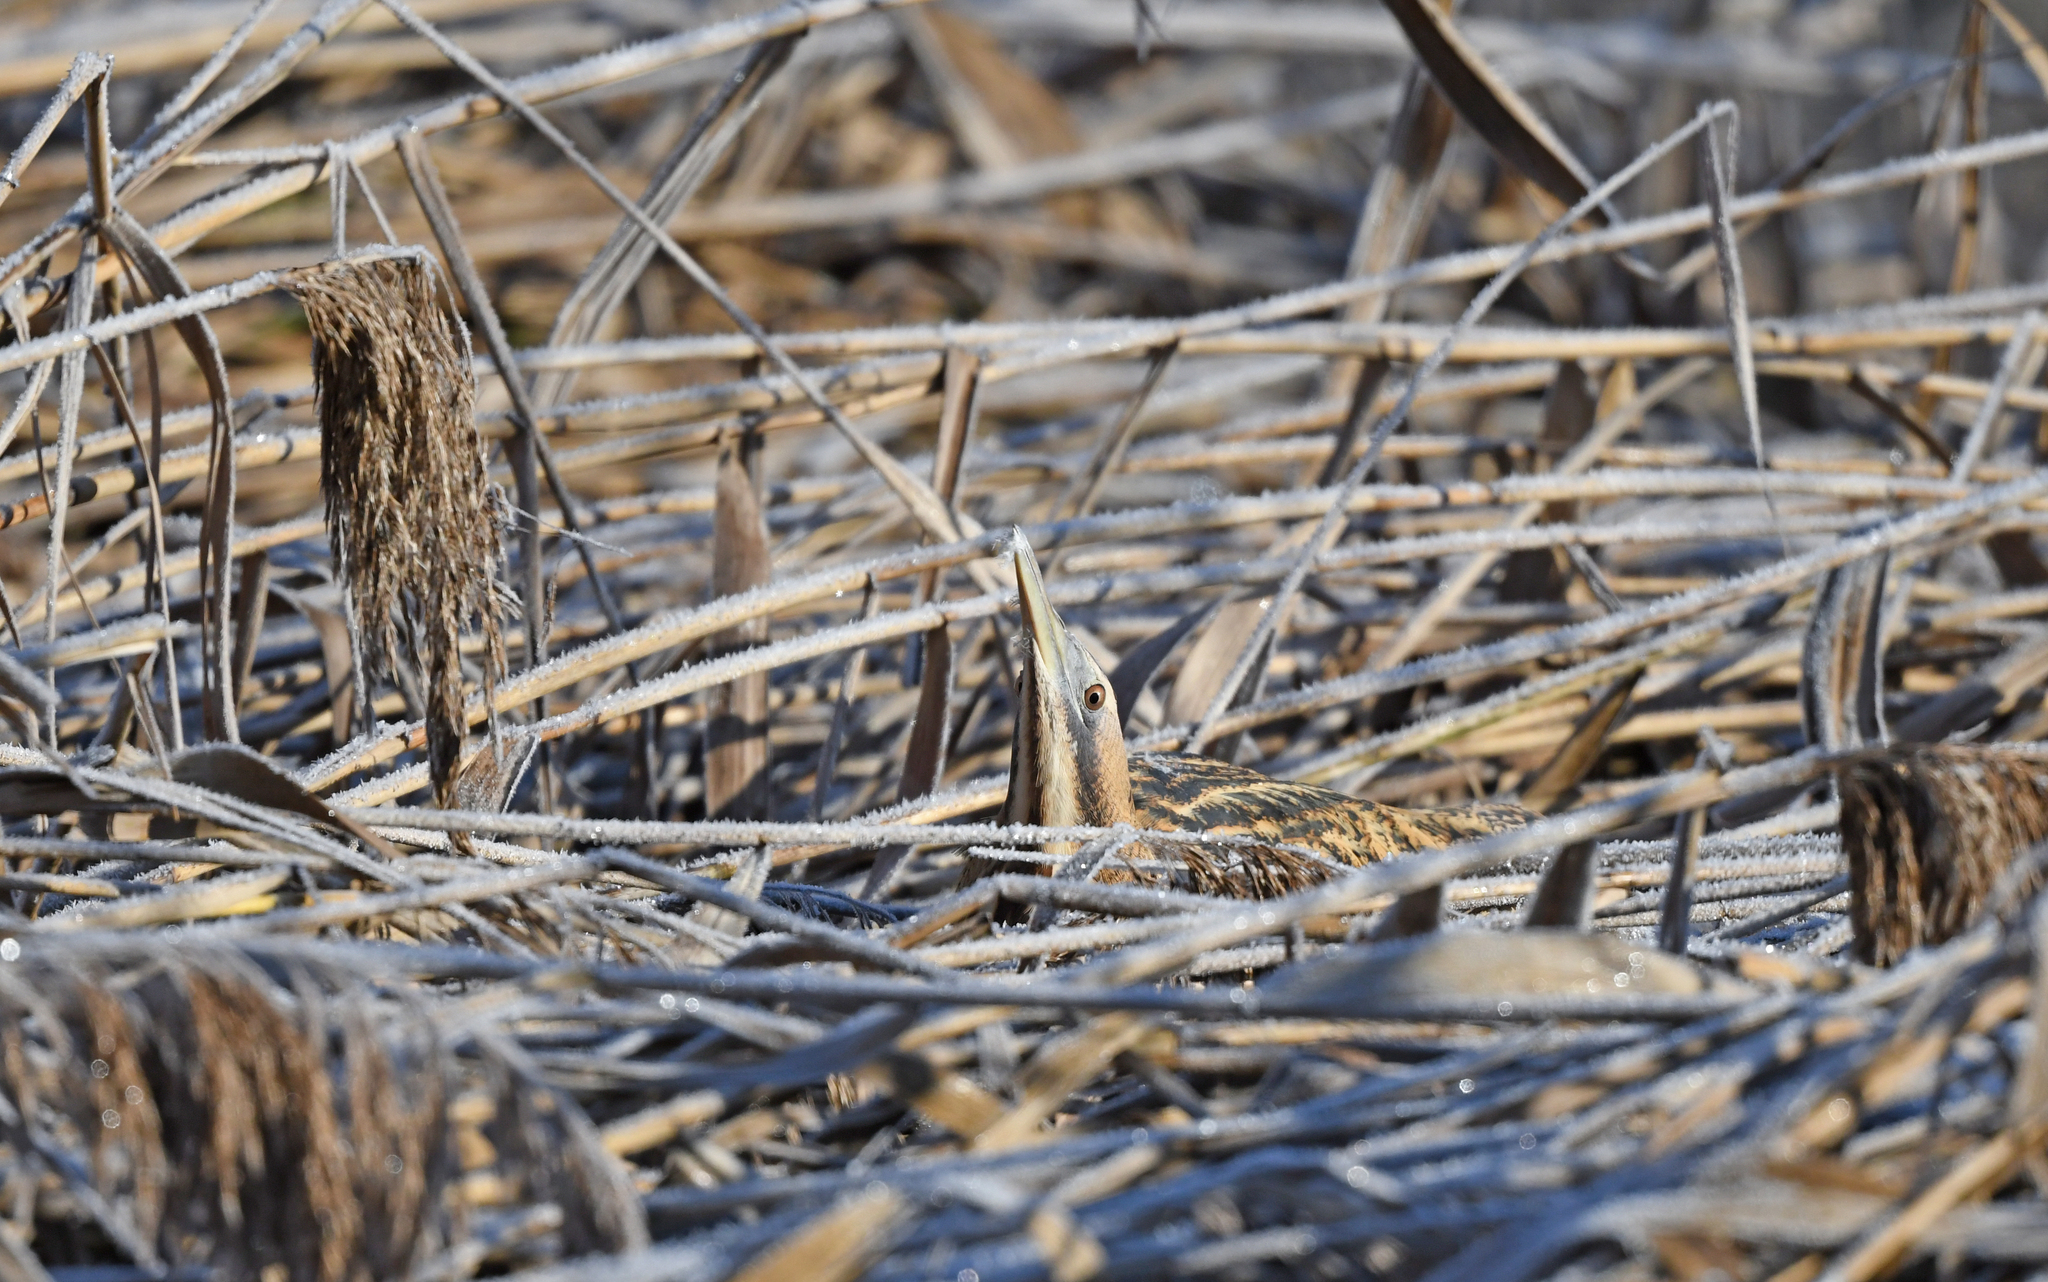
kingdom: Animalia
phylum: Chordata
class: Aves
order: Pelecaniformes
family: Ardeidae
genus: Botaurus
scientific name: Botaurus stellaris
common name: Eurasian bittern
